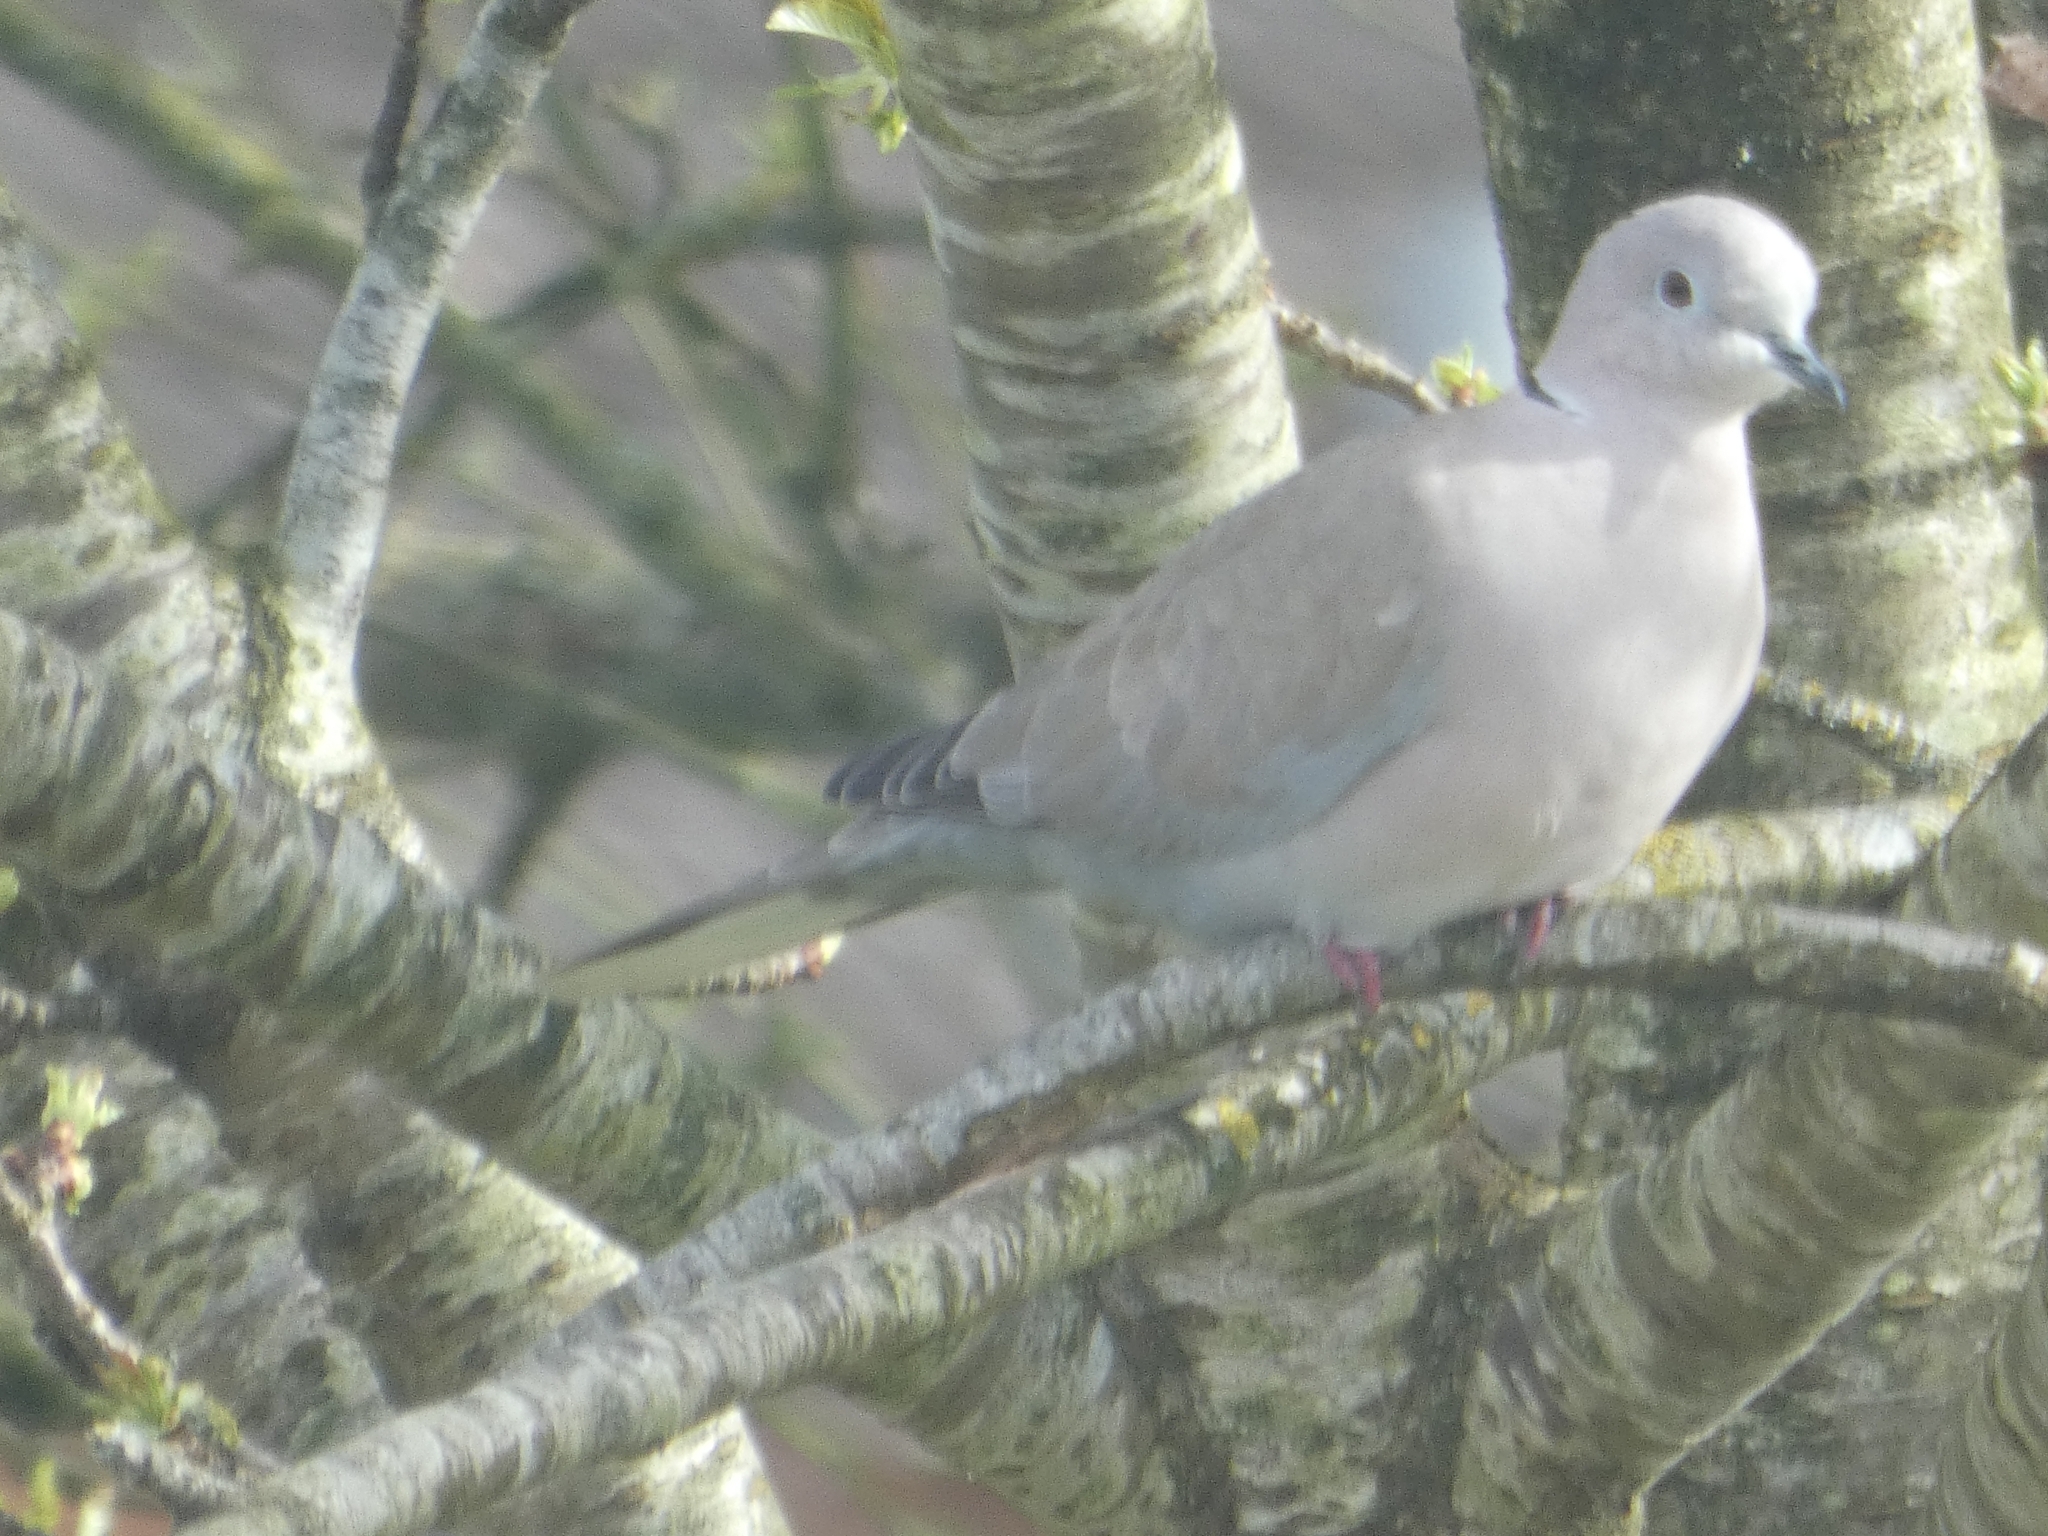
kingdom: Animalia
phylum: Chordata
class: Aves
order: Columbiformes
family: Columbidae
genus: Streptopelia
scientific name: Streptopelia decaocto
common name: Eurasian collared dove
